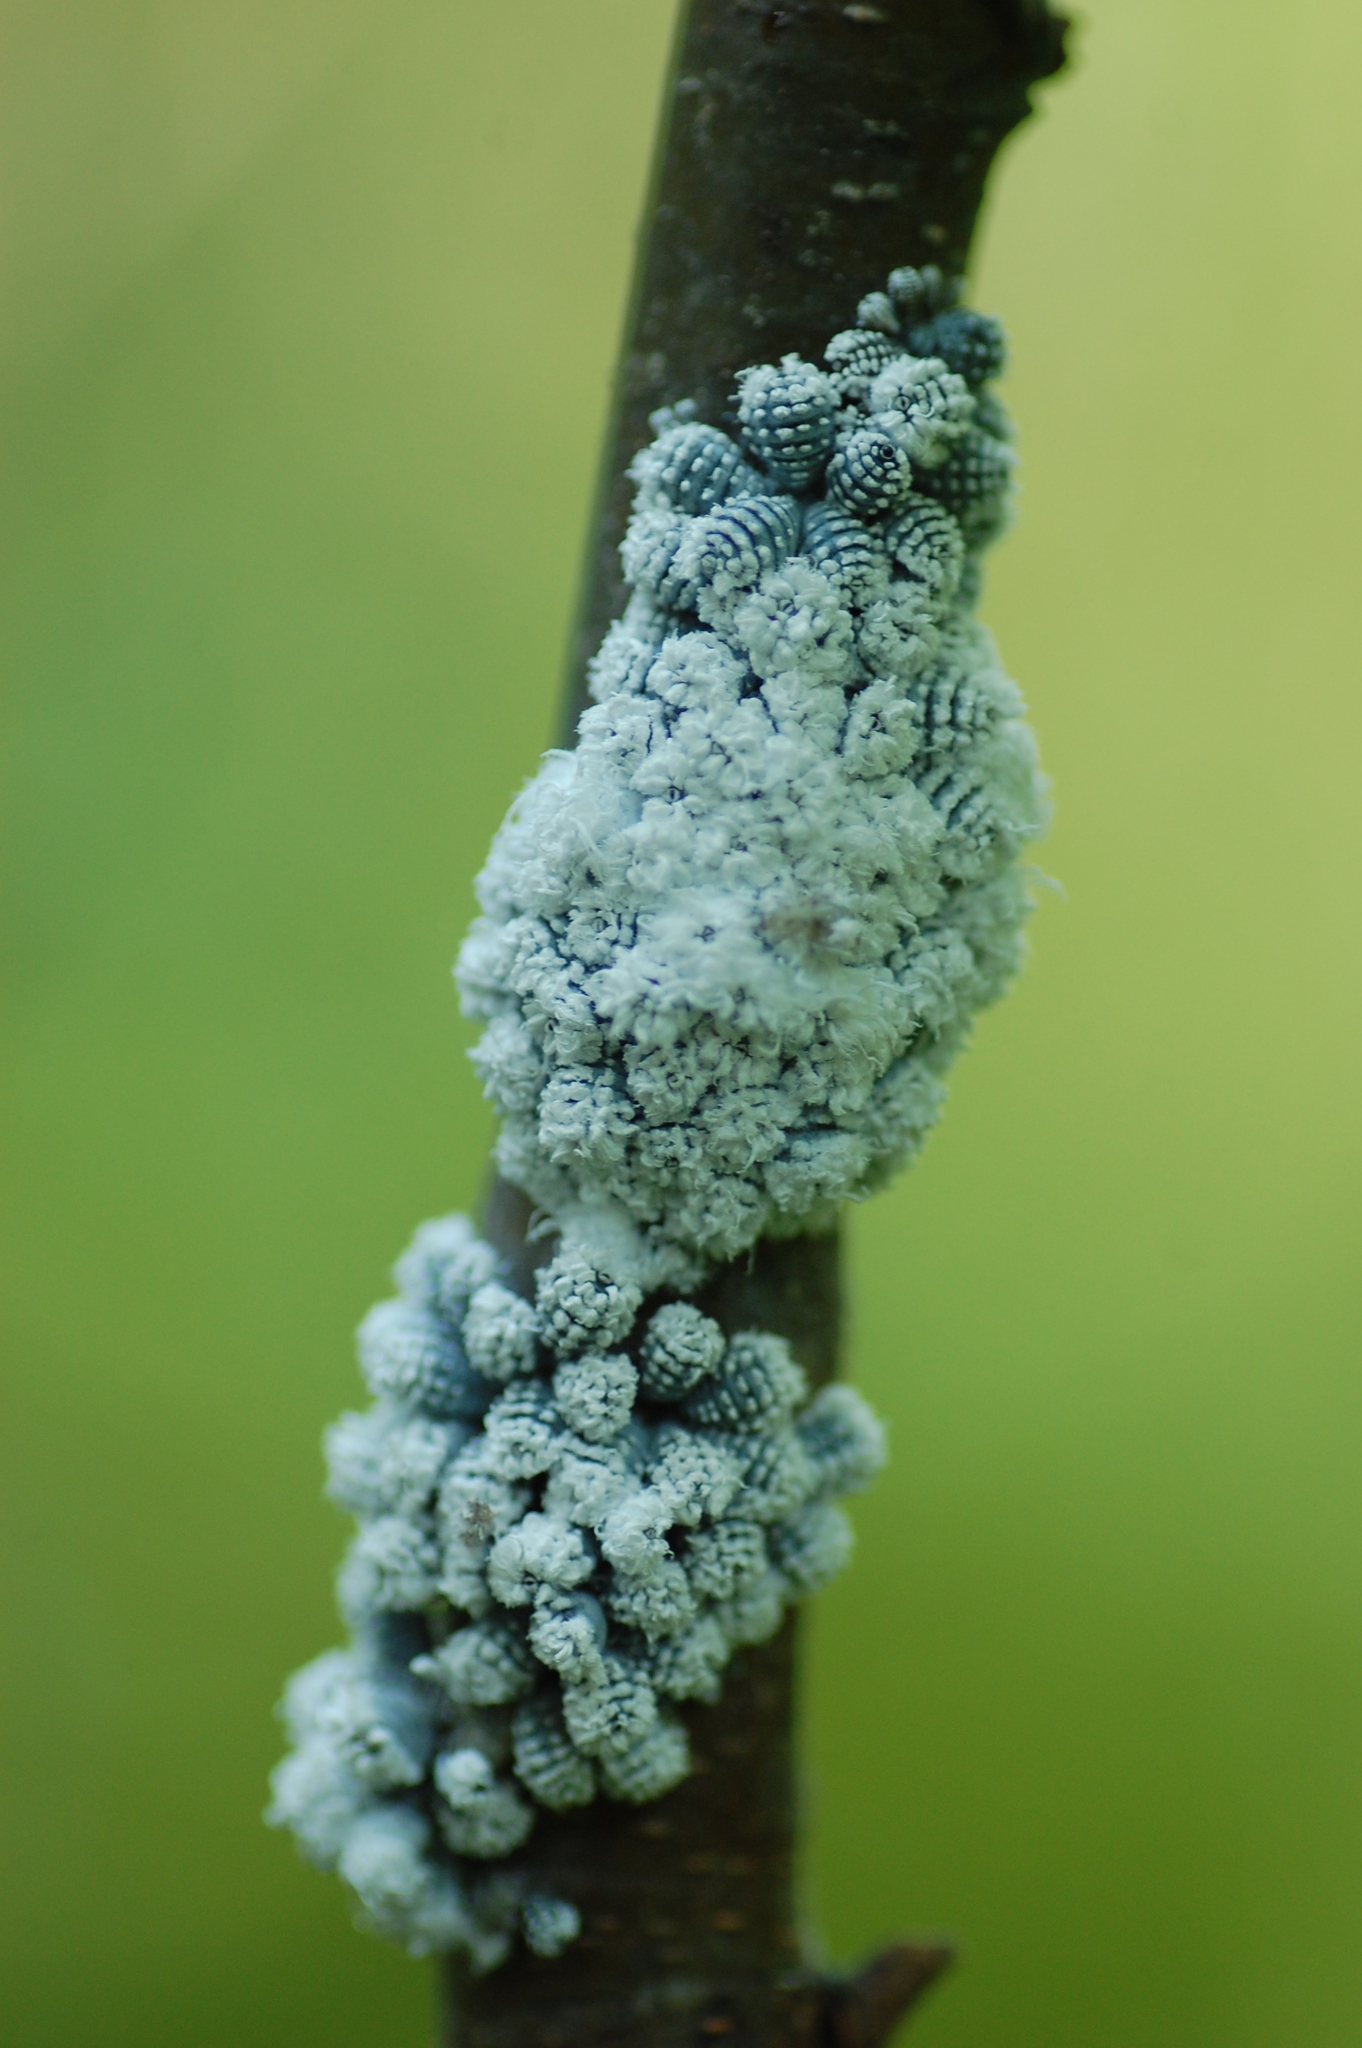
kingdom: Animalia
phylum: Arthropoda
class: Insecta
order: Hemiptera
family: Aphididae
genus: Prociphilus
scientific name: Prociphilus tessellatus
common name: Woolly alder aphid
